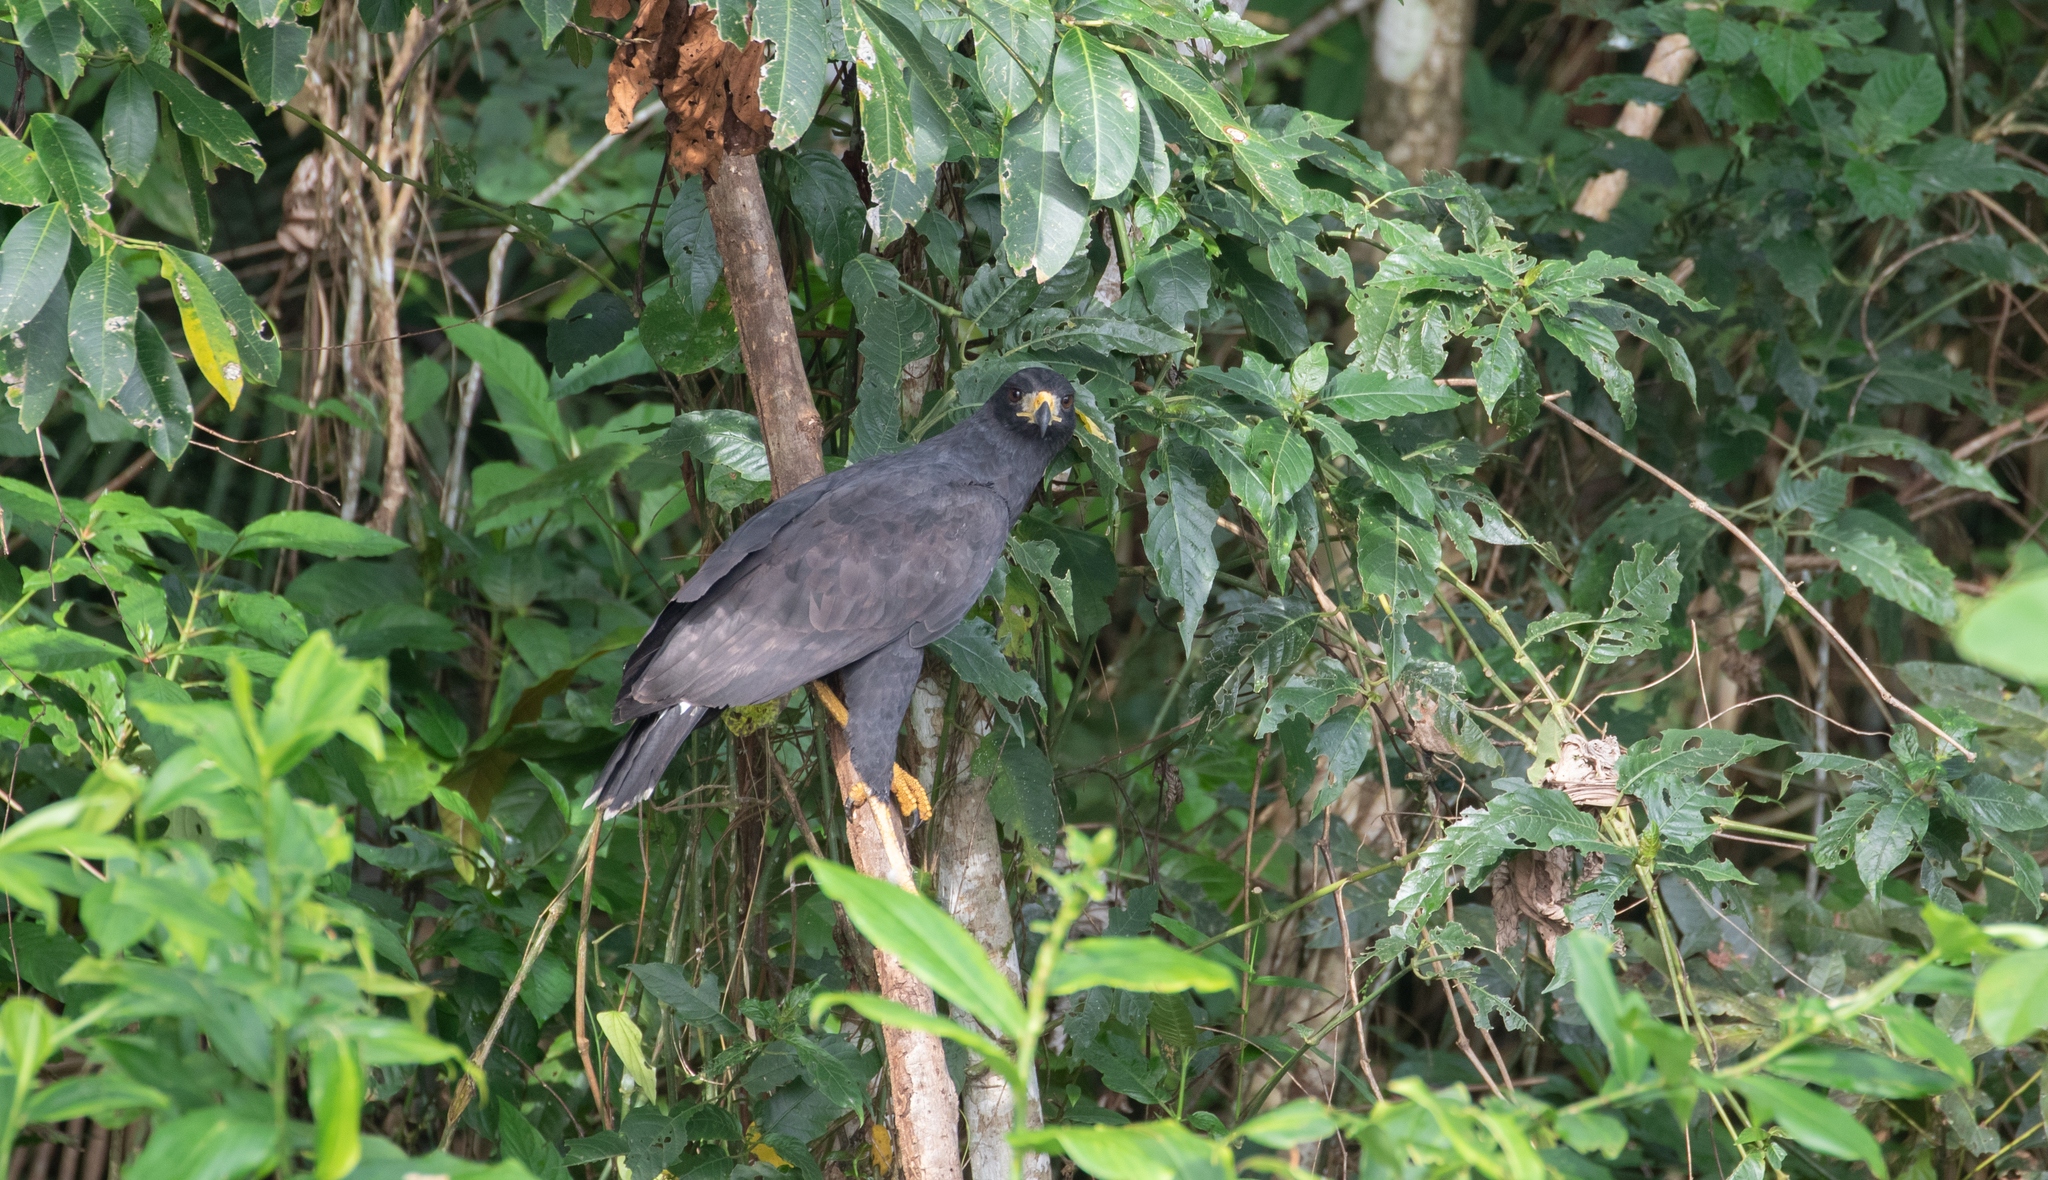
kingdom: Animalia
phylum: Chordata
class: Aves
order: Accipitriformes
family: Accipitridae
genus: Buteogallus
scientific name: Buteogallus urubitinga
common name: Great black hawk
